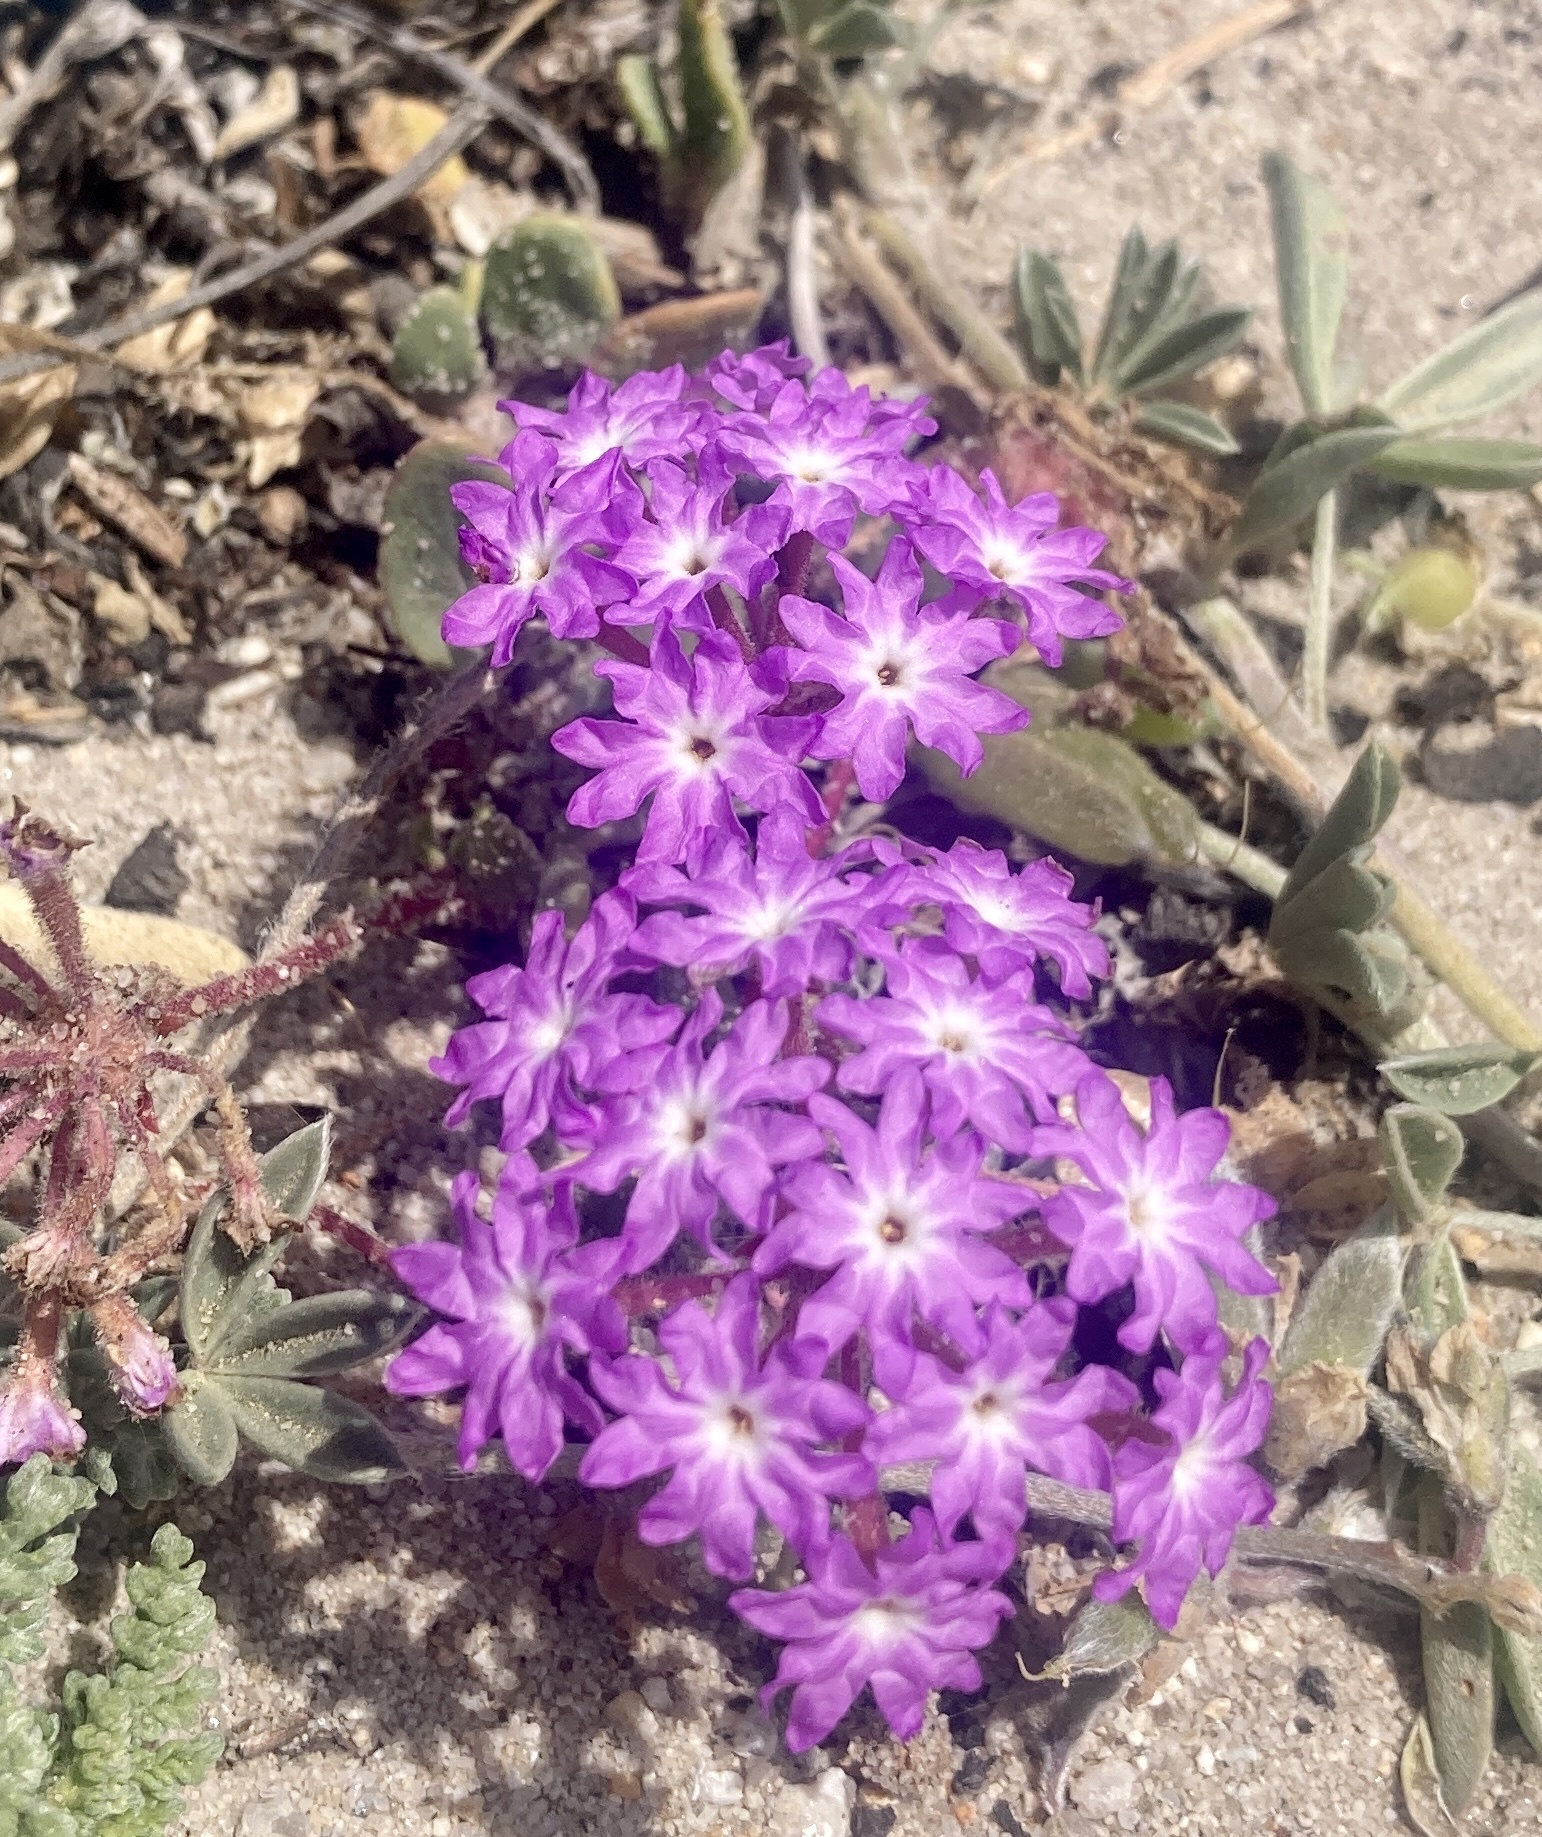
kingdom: Plantae
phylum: Tracheophyta
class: Magnoliopsida
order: Caryophyllales
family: Nyctaginaceae
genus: Abronia
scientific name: Abronia umbellata
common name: Sand-verbena
